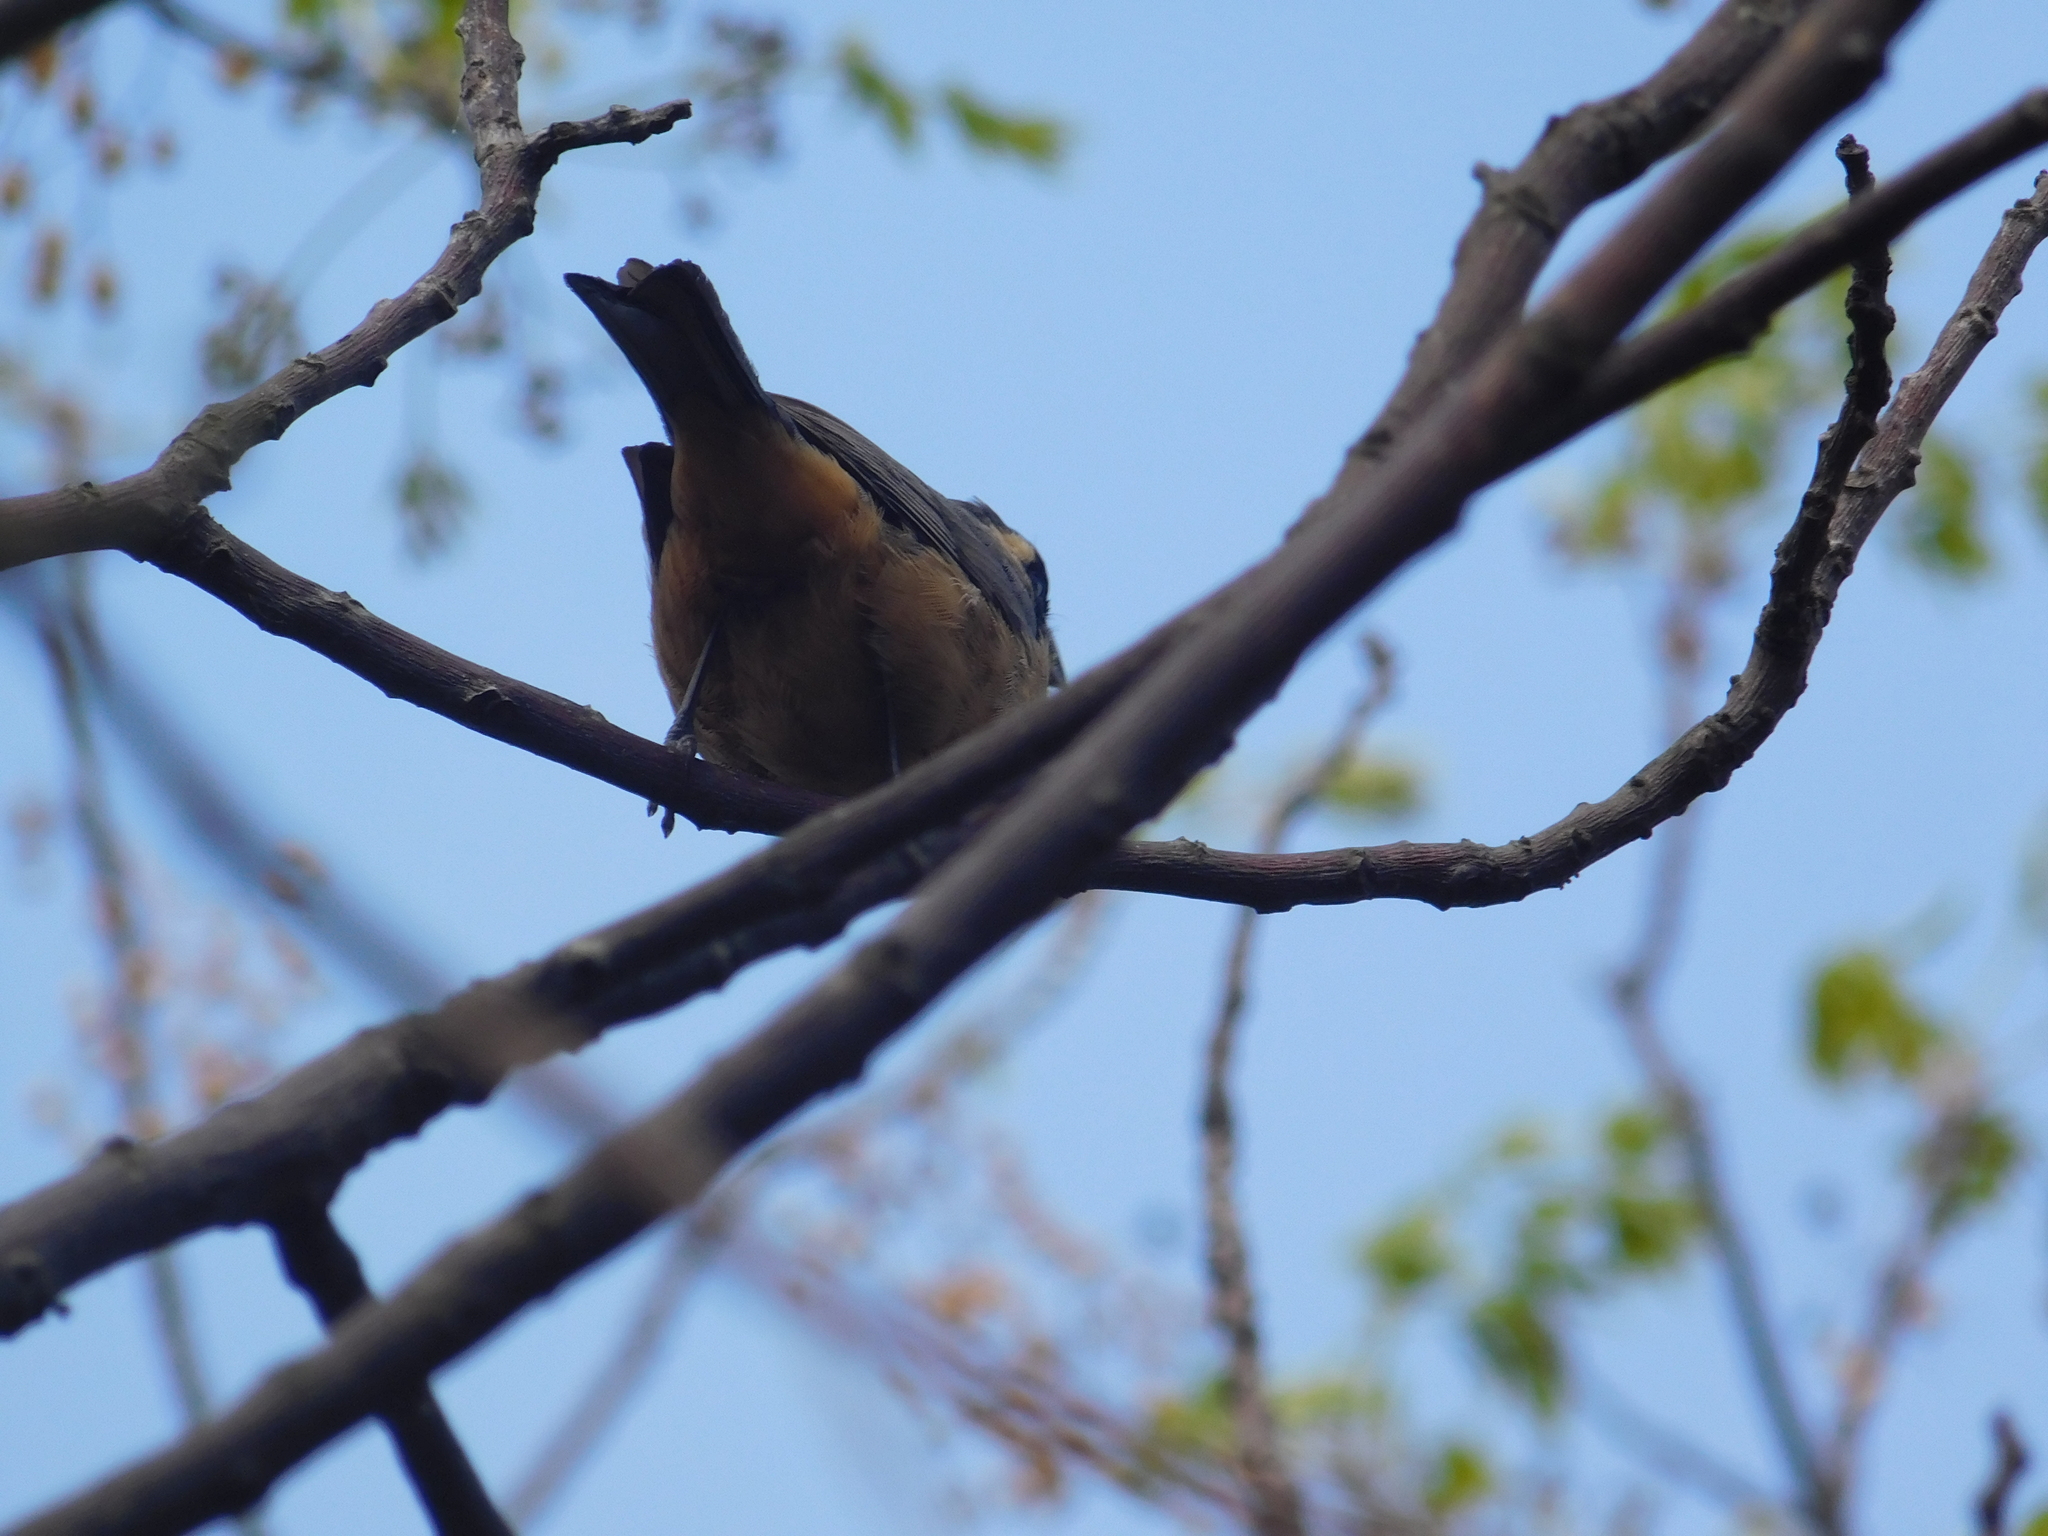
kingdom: Animalia
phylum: Chordata
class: Aves
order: Passeriformes
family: Thraupidae
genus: Saltator
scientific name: Saltator aurantiirostris
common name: Golden-billed saltator
